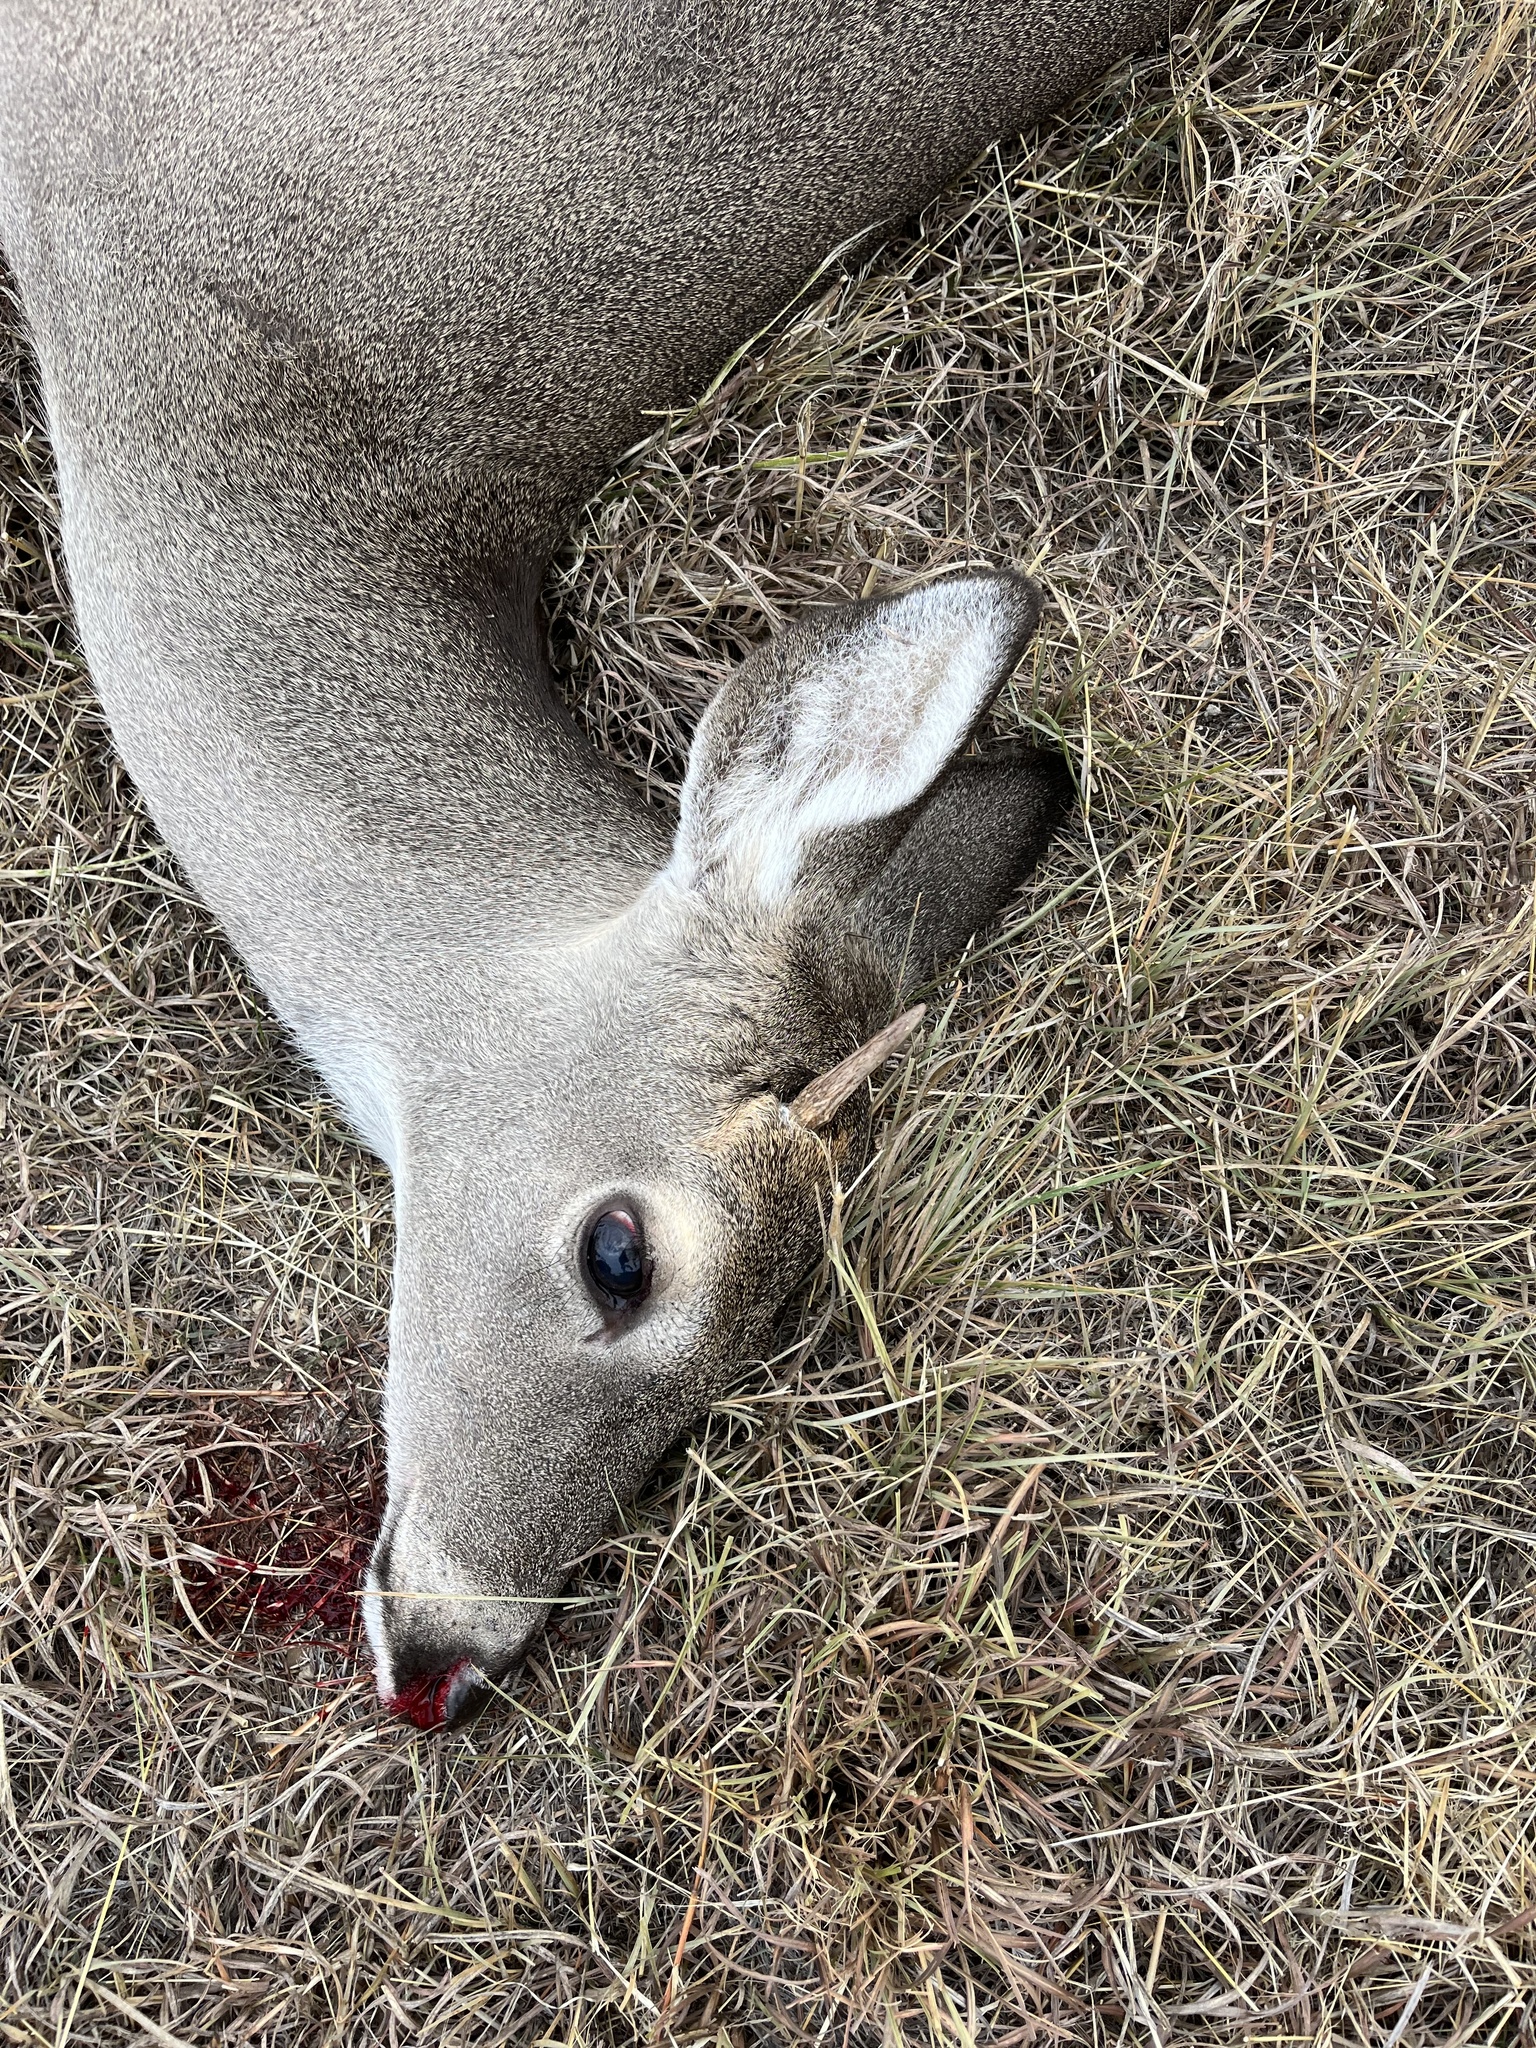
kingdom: Animalia
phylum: Chordata
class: Mammalia
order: Artiodactyla
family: Cervidae
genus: Odocoileus
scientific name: Odocoileus virginianus
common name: White-tailed deer
